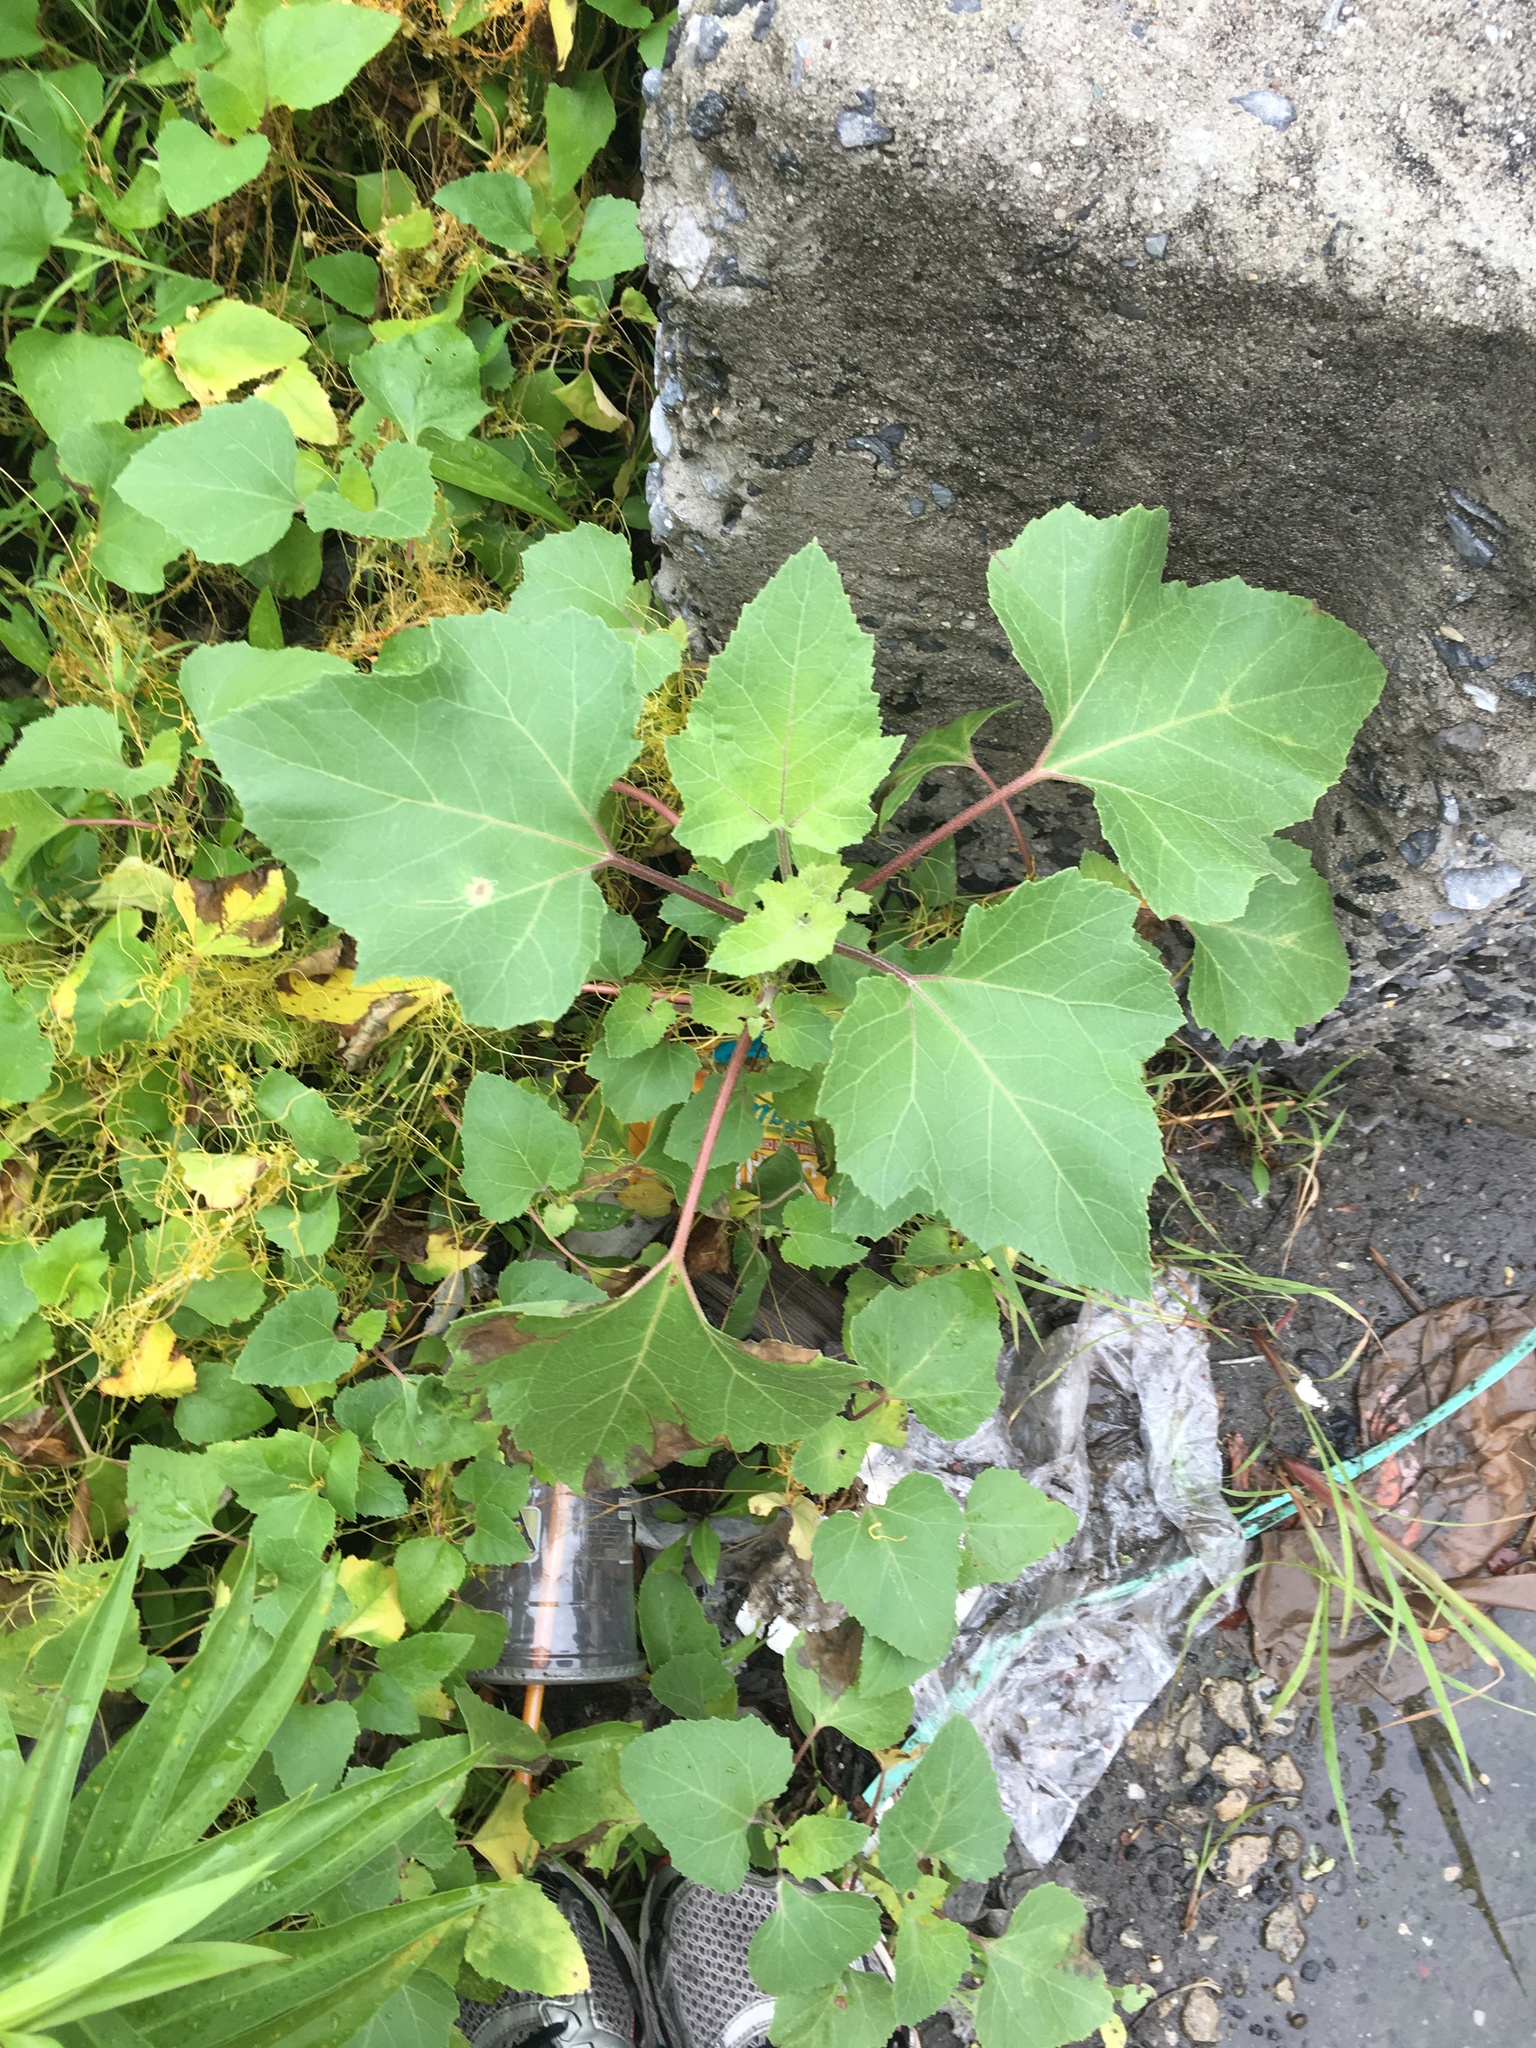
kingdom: Plantae
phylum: Tracheophyta
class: Magnoliopsida
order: Asterales
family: Asteraceae
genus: Xanthium
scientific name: Xanthium strumarium
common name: Rough cocklebur
